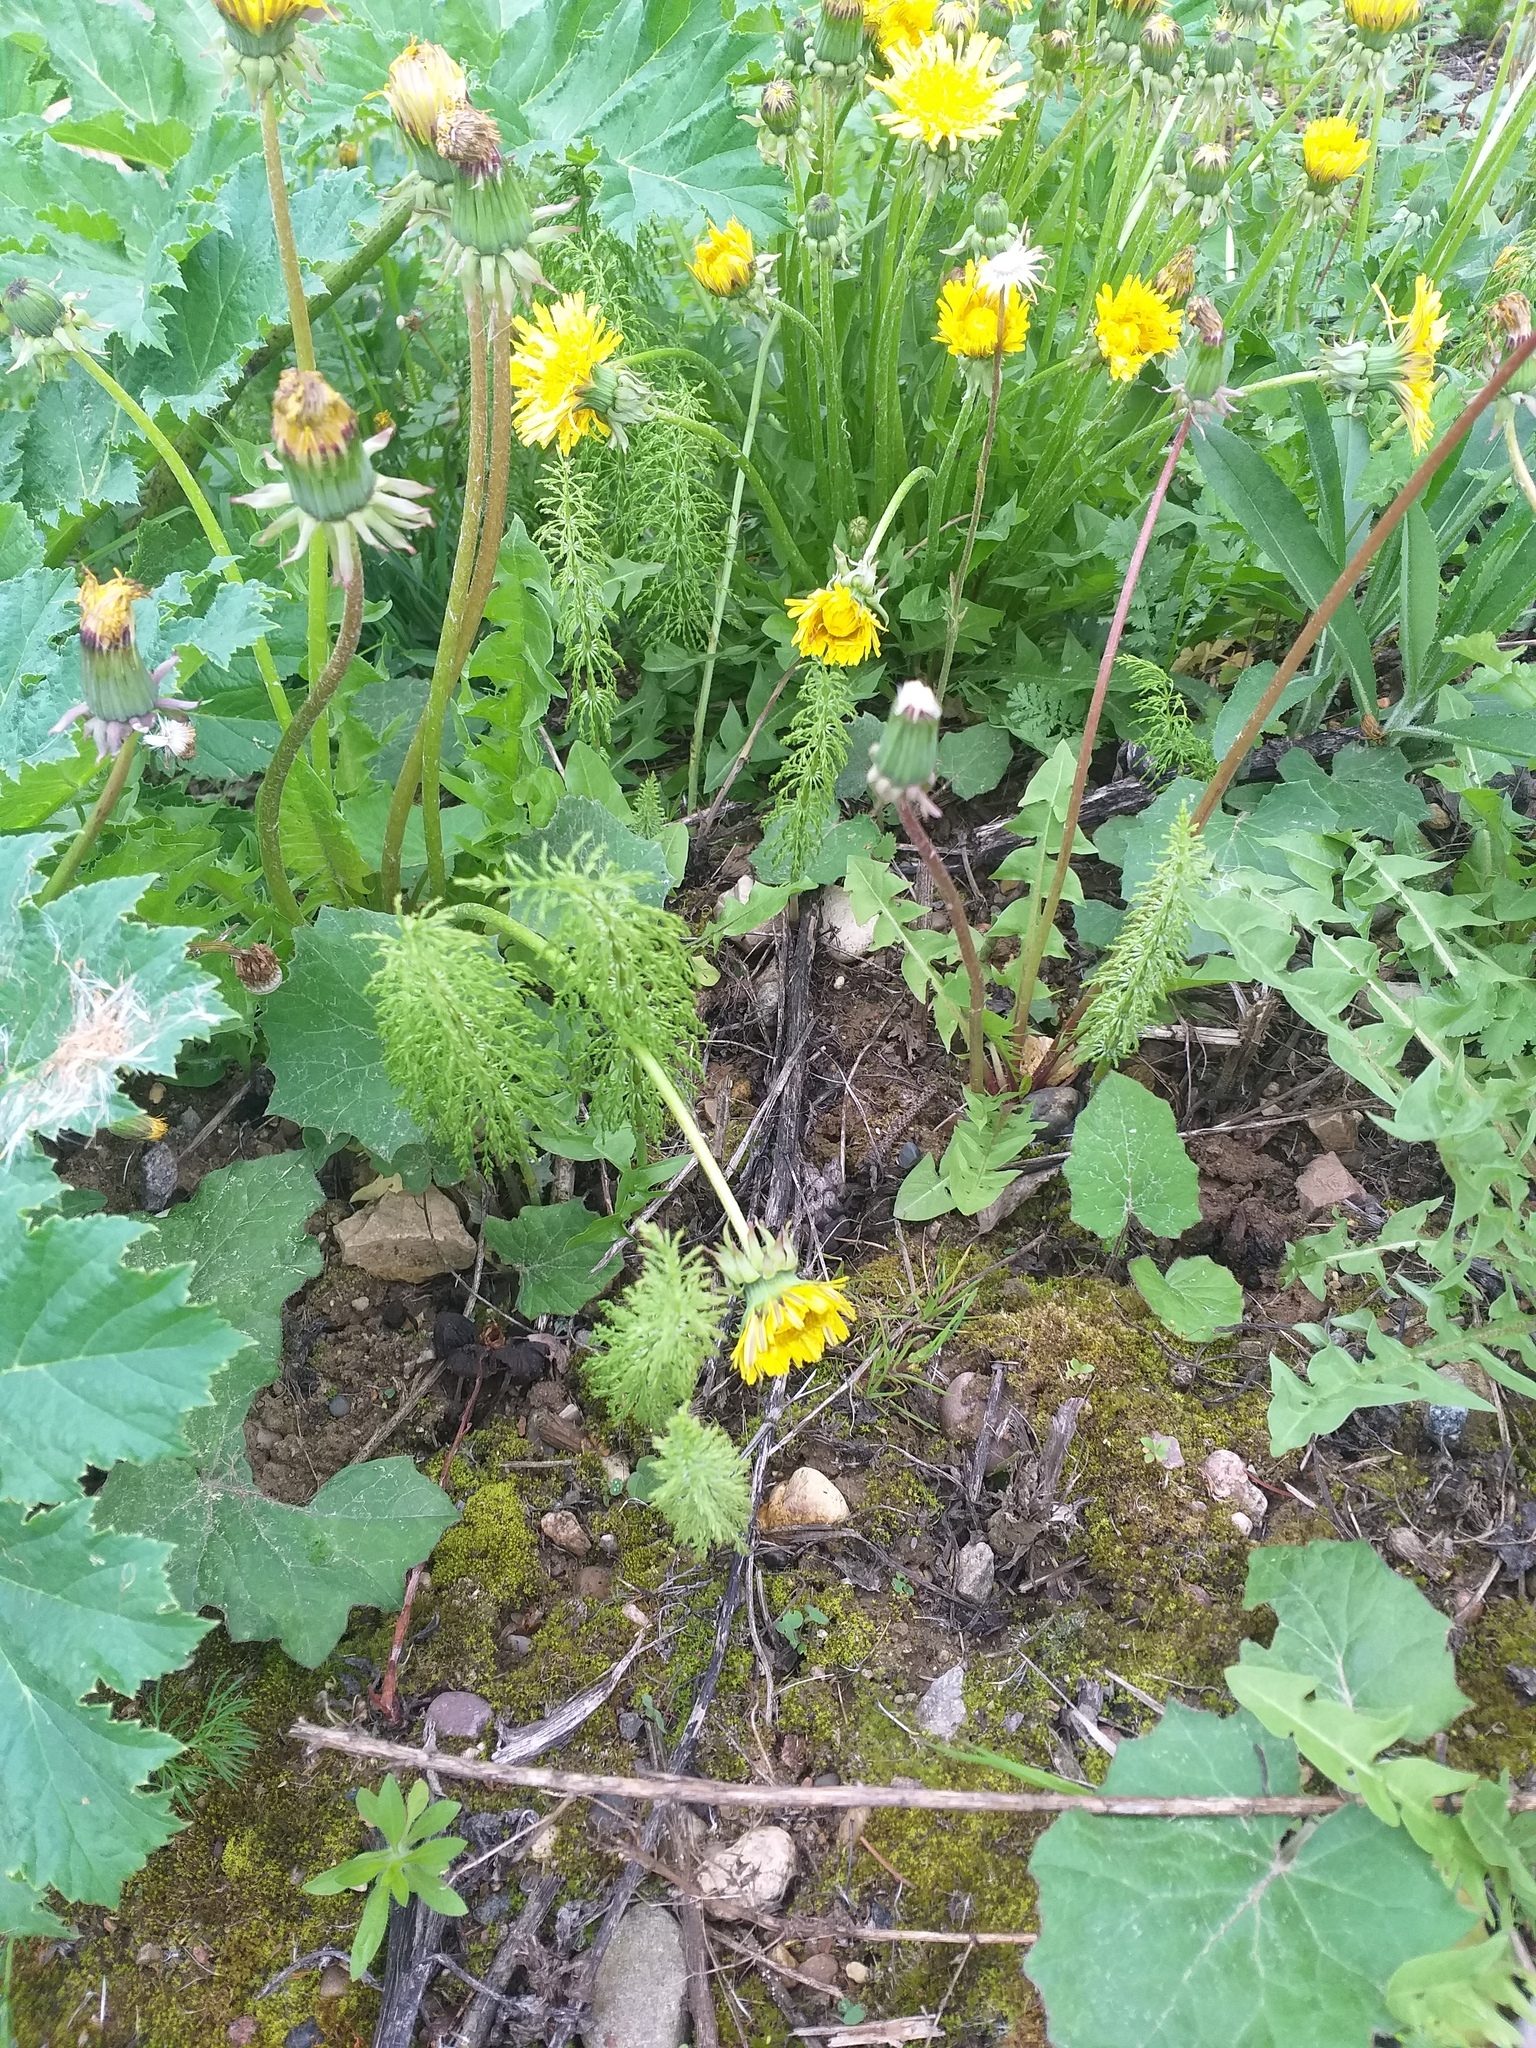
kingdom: Plantae
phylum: Tracheophyta
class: Polypodiopsida
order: Equisetales
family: Equisetaceae
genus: Equisetum
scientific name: Equisetum sylvaticum
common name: Wood horsetail
